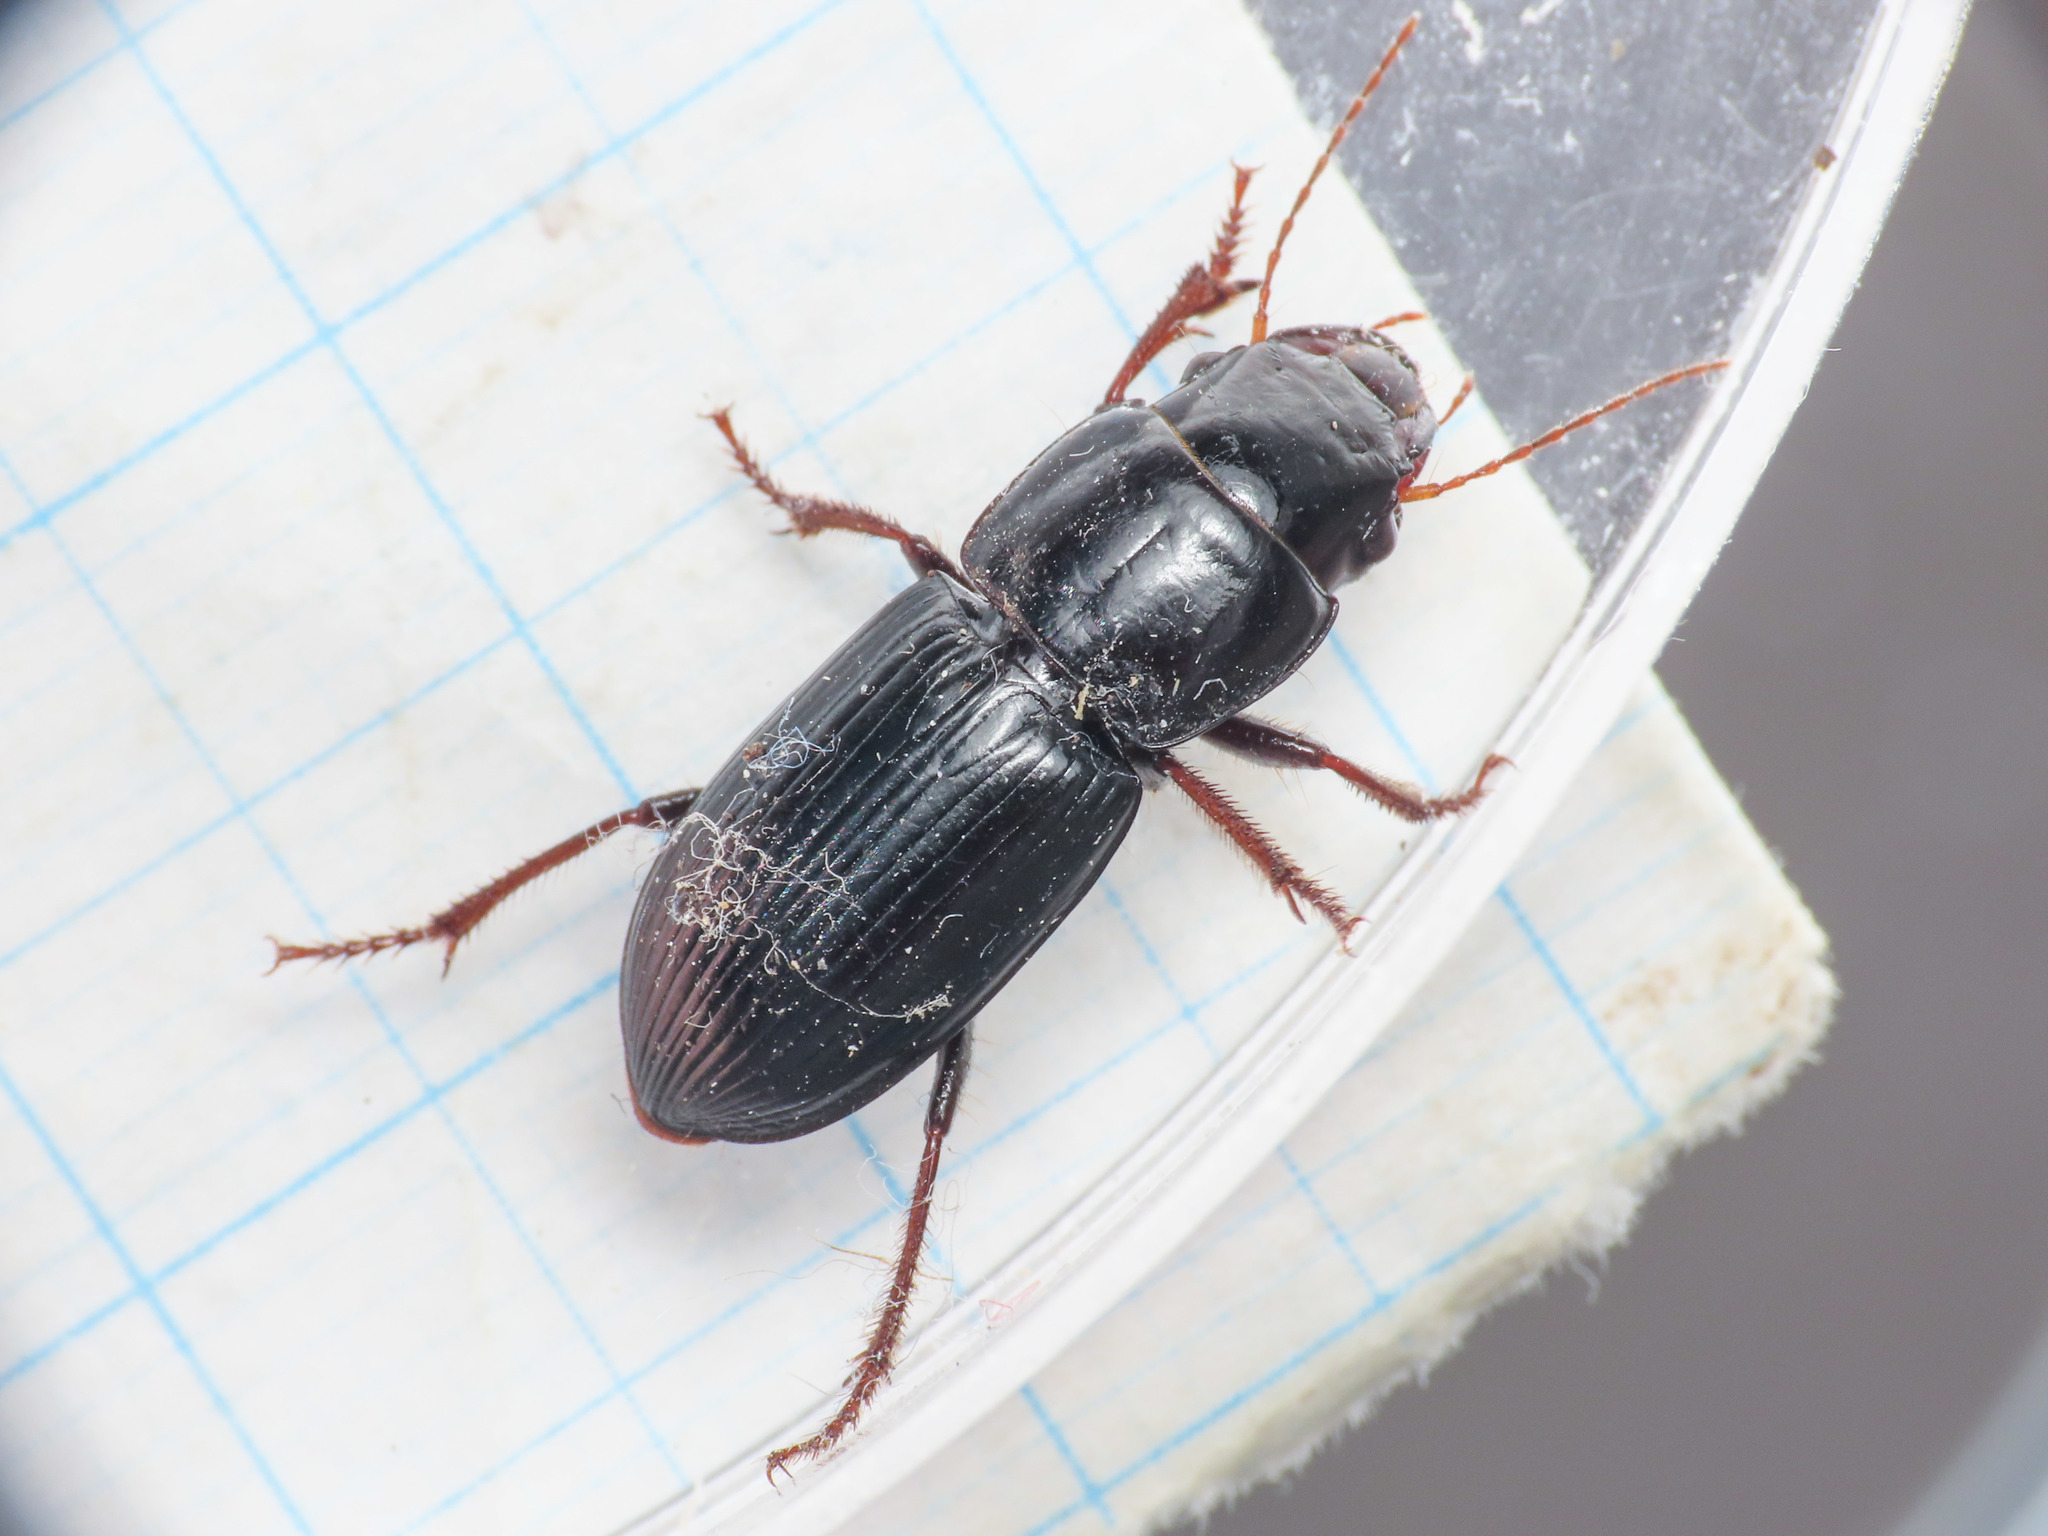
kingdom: Animalia
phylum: Arthropoda
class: Insecta
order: Coleoptera
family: Carabidae
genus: Acinopus
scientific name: Acinopus picipes
